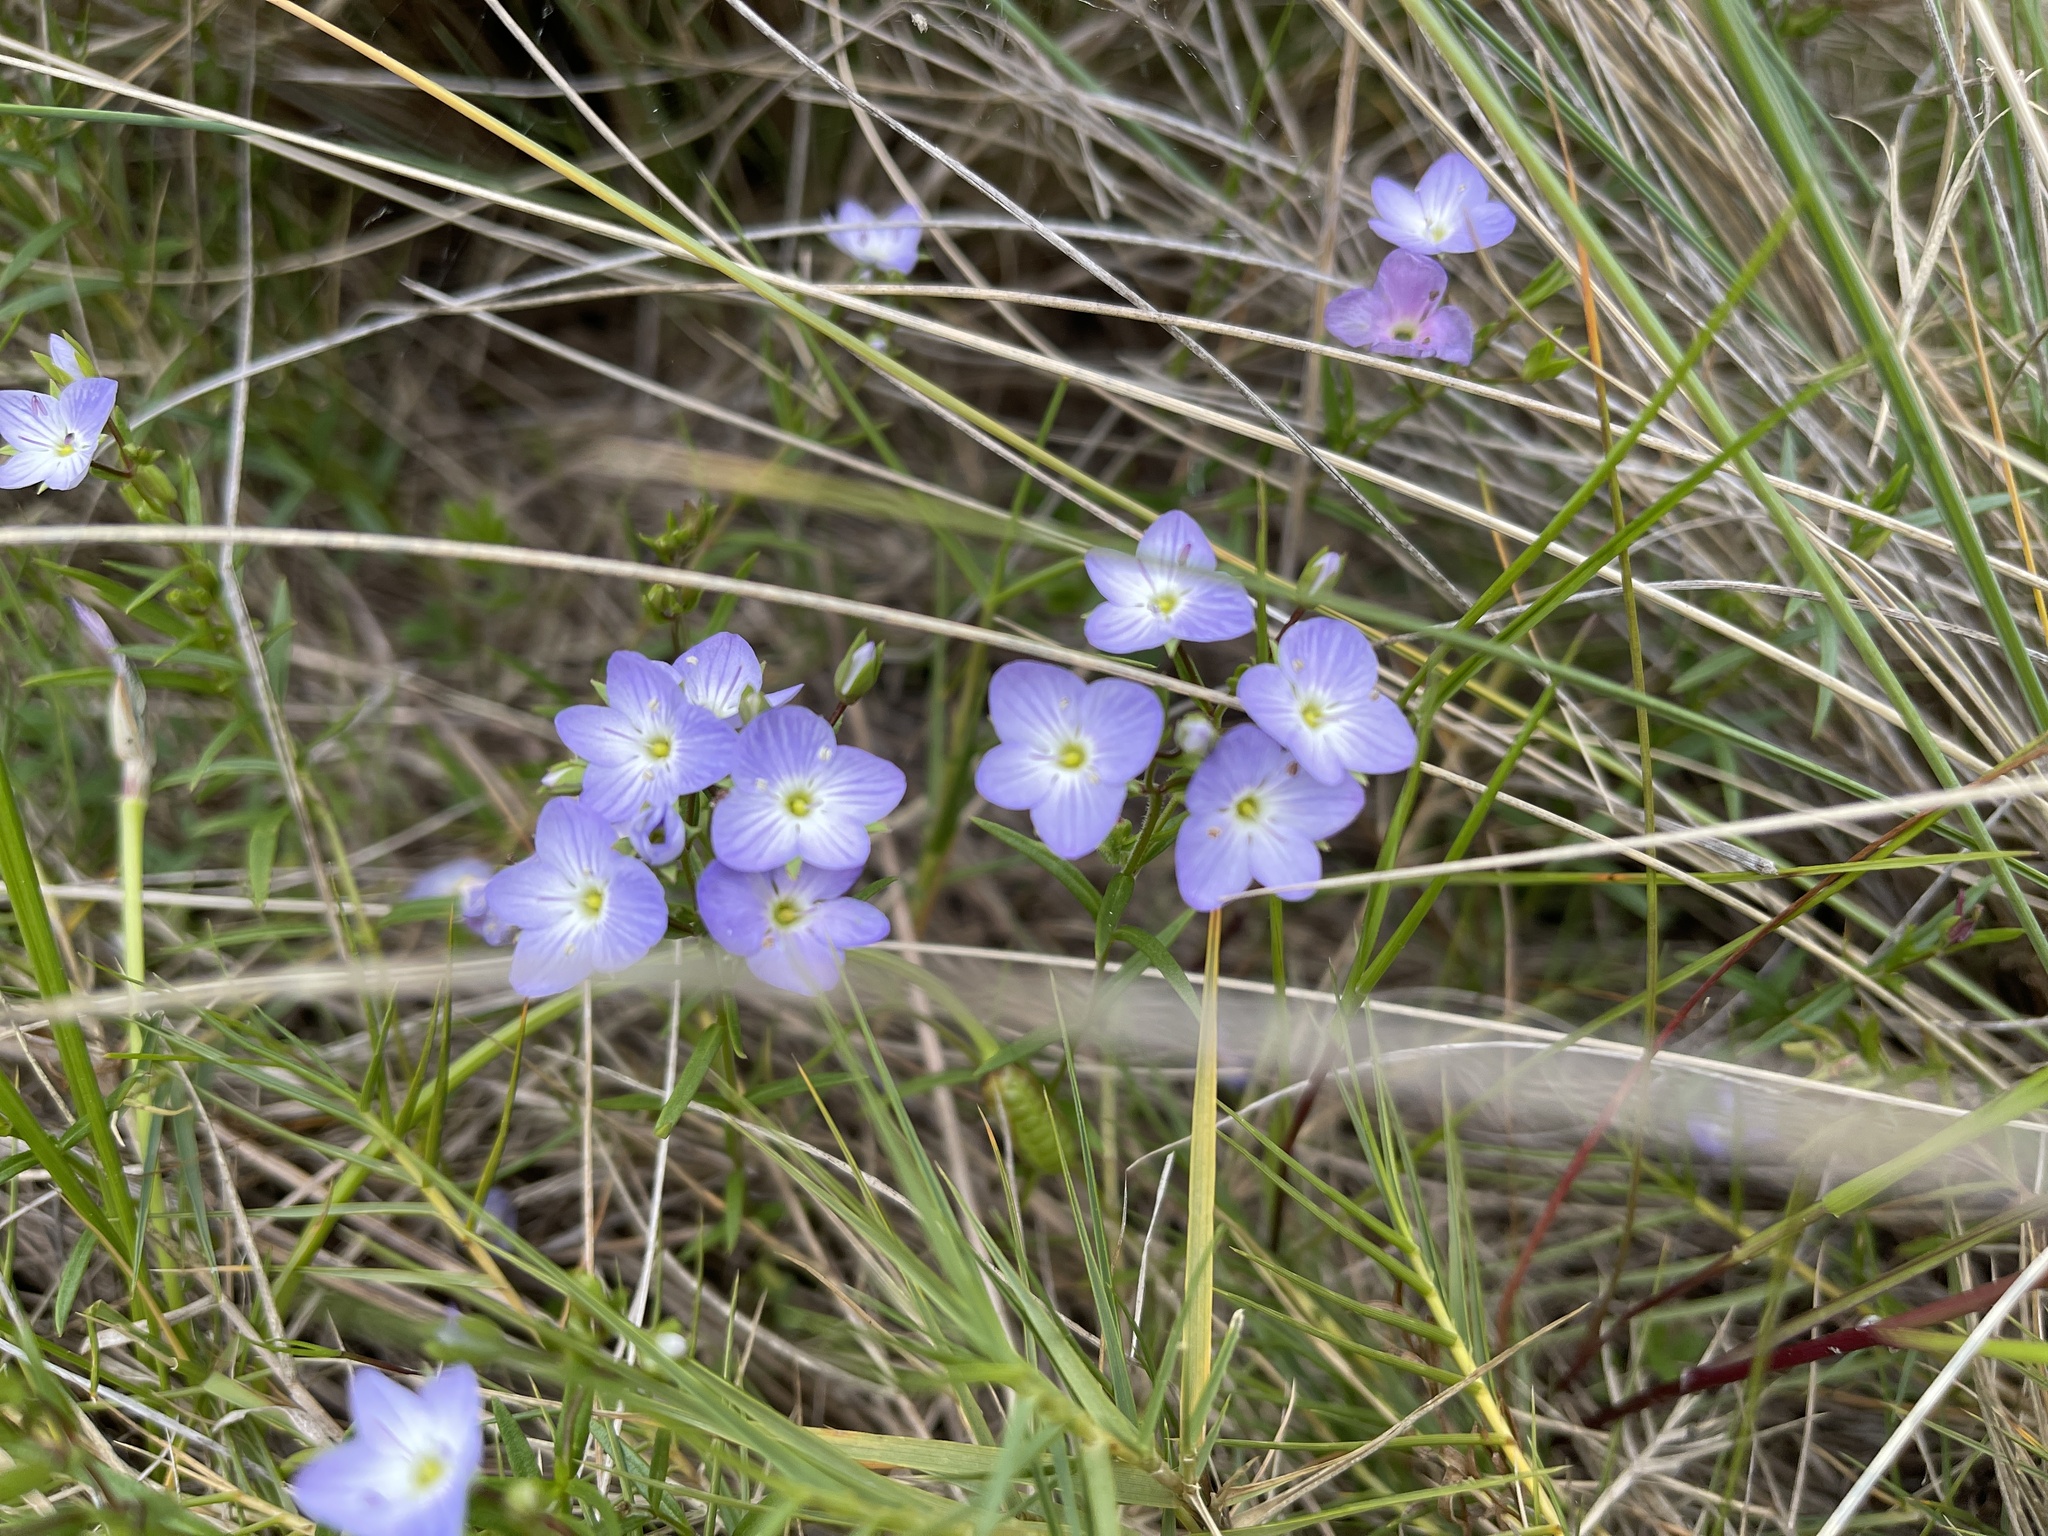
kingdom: Plantae
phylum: Tracheophyta
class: Magnoliopsida
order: Lamiales
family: Plantaginaceae
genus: Veronica
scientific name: Veronica gracilis
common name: Slender speedwell
